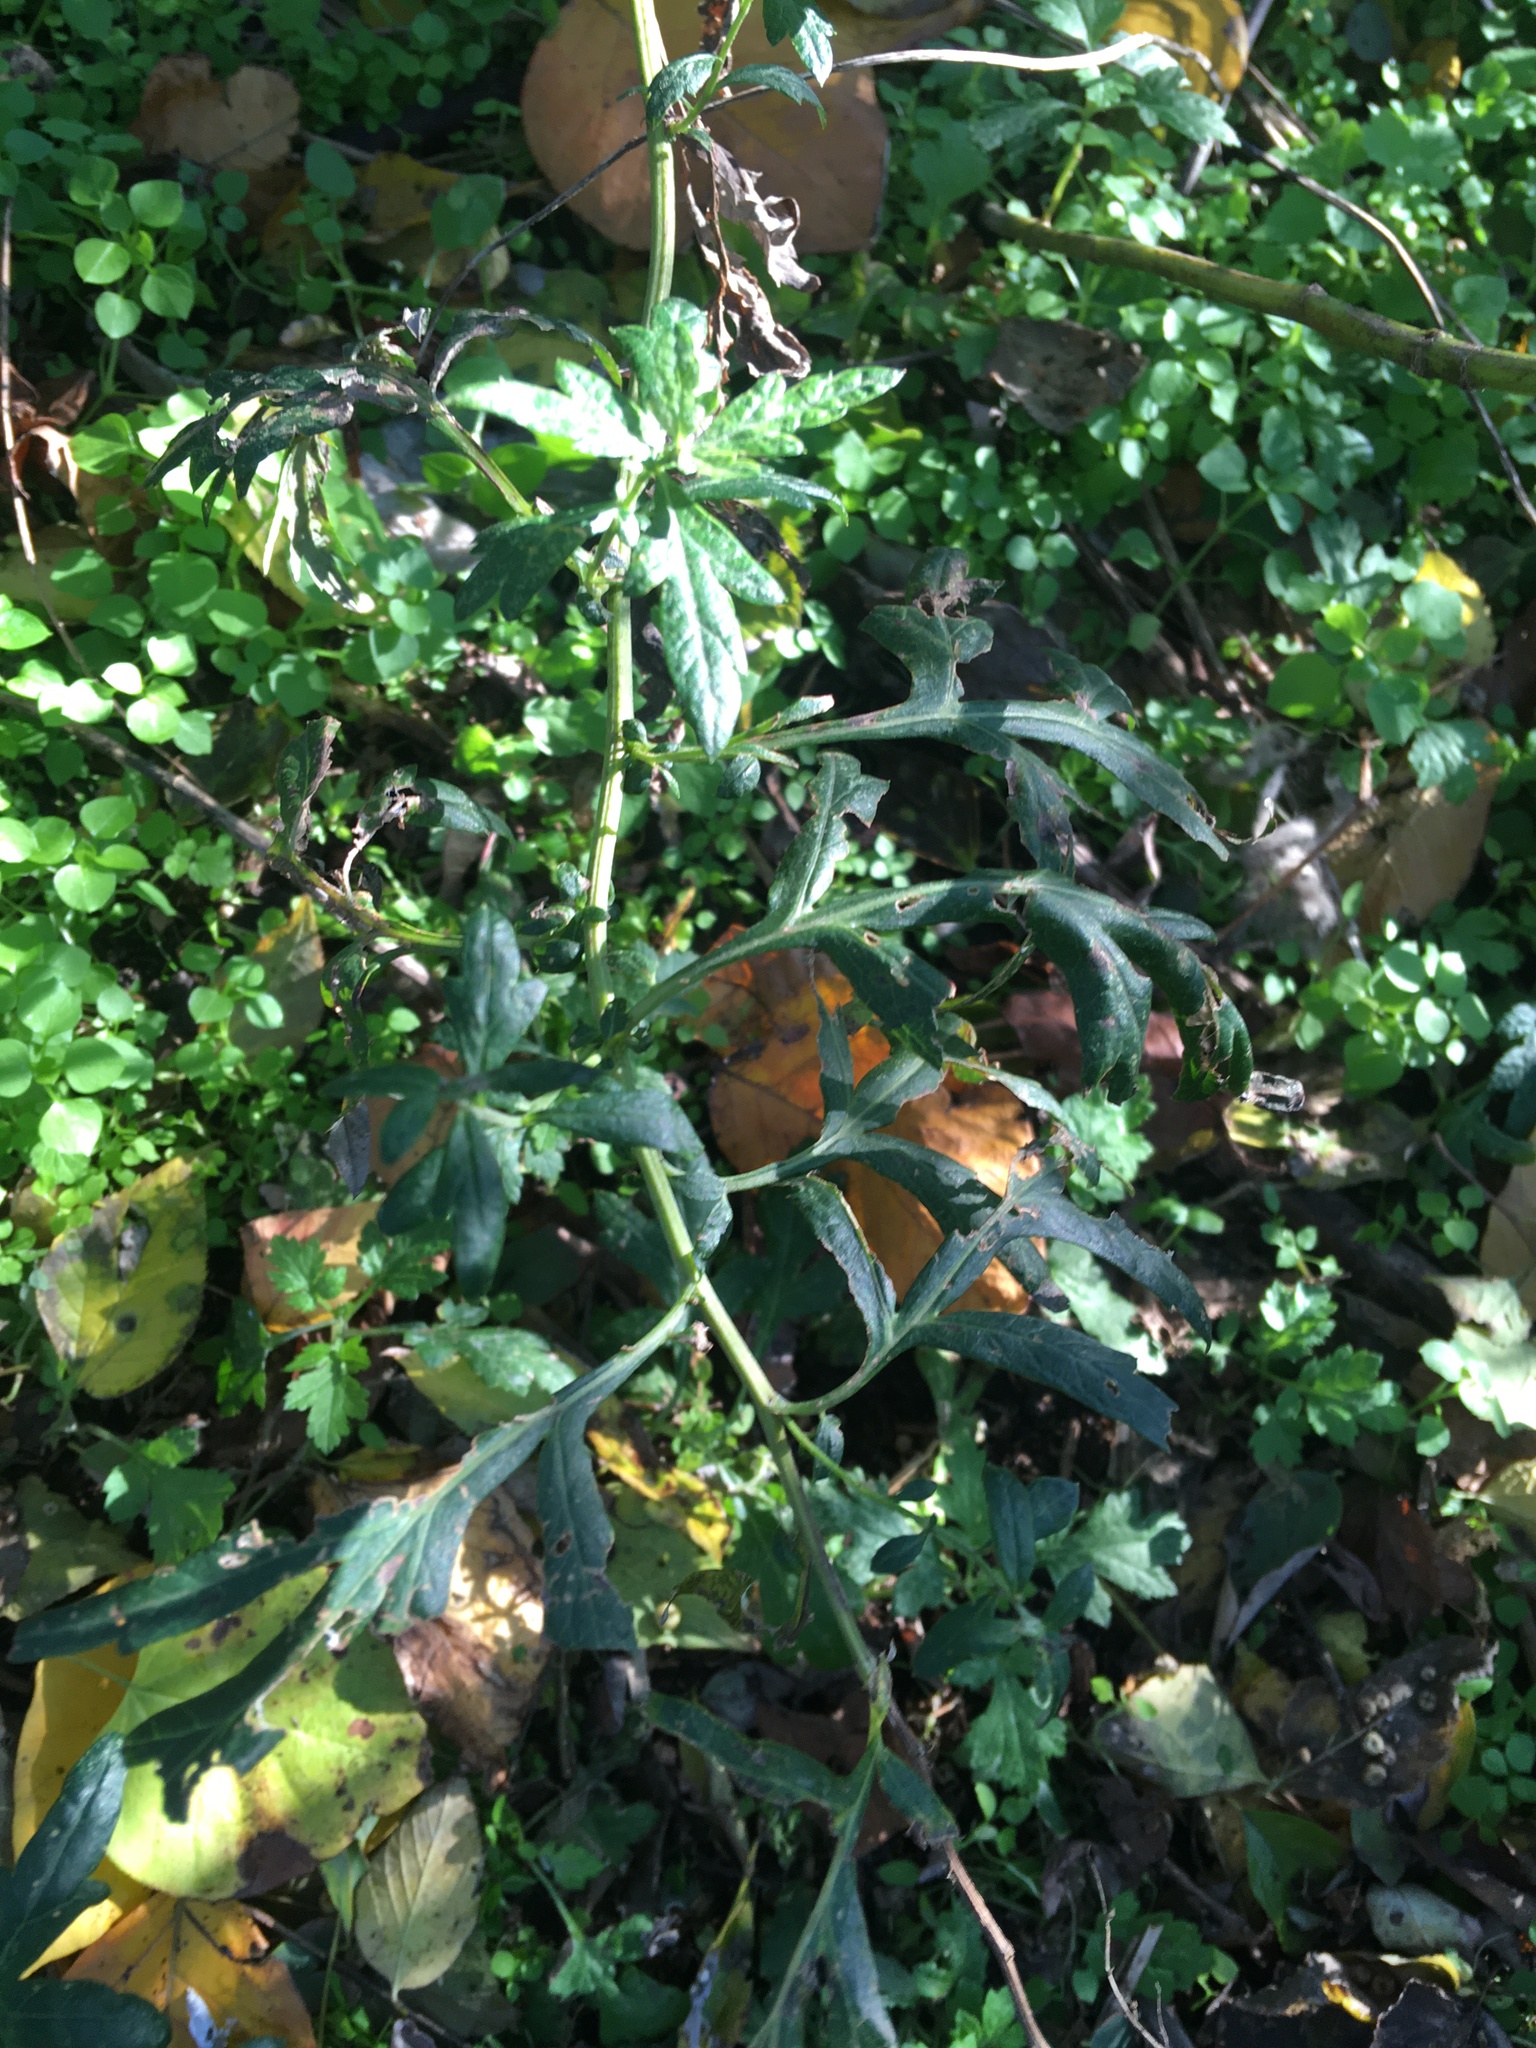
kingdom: Plantae
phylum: Tracheophyta
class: Magnoliopsida
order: Asterales
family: Asteraceae
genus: Artemisia
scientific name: Artemisia vulgaris
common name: Mugwort
